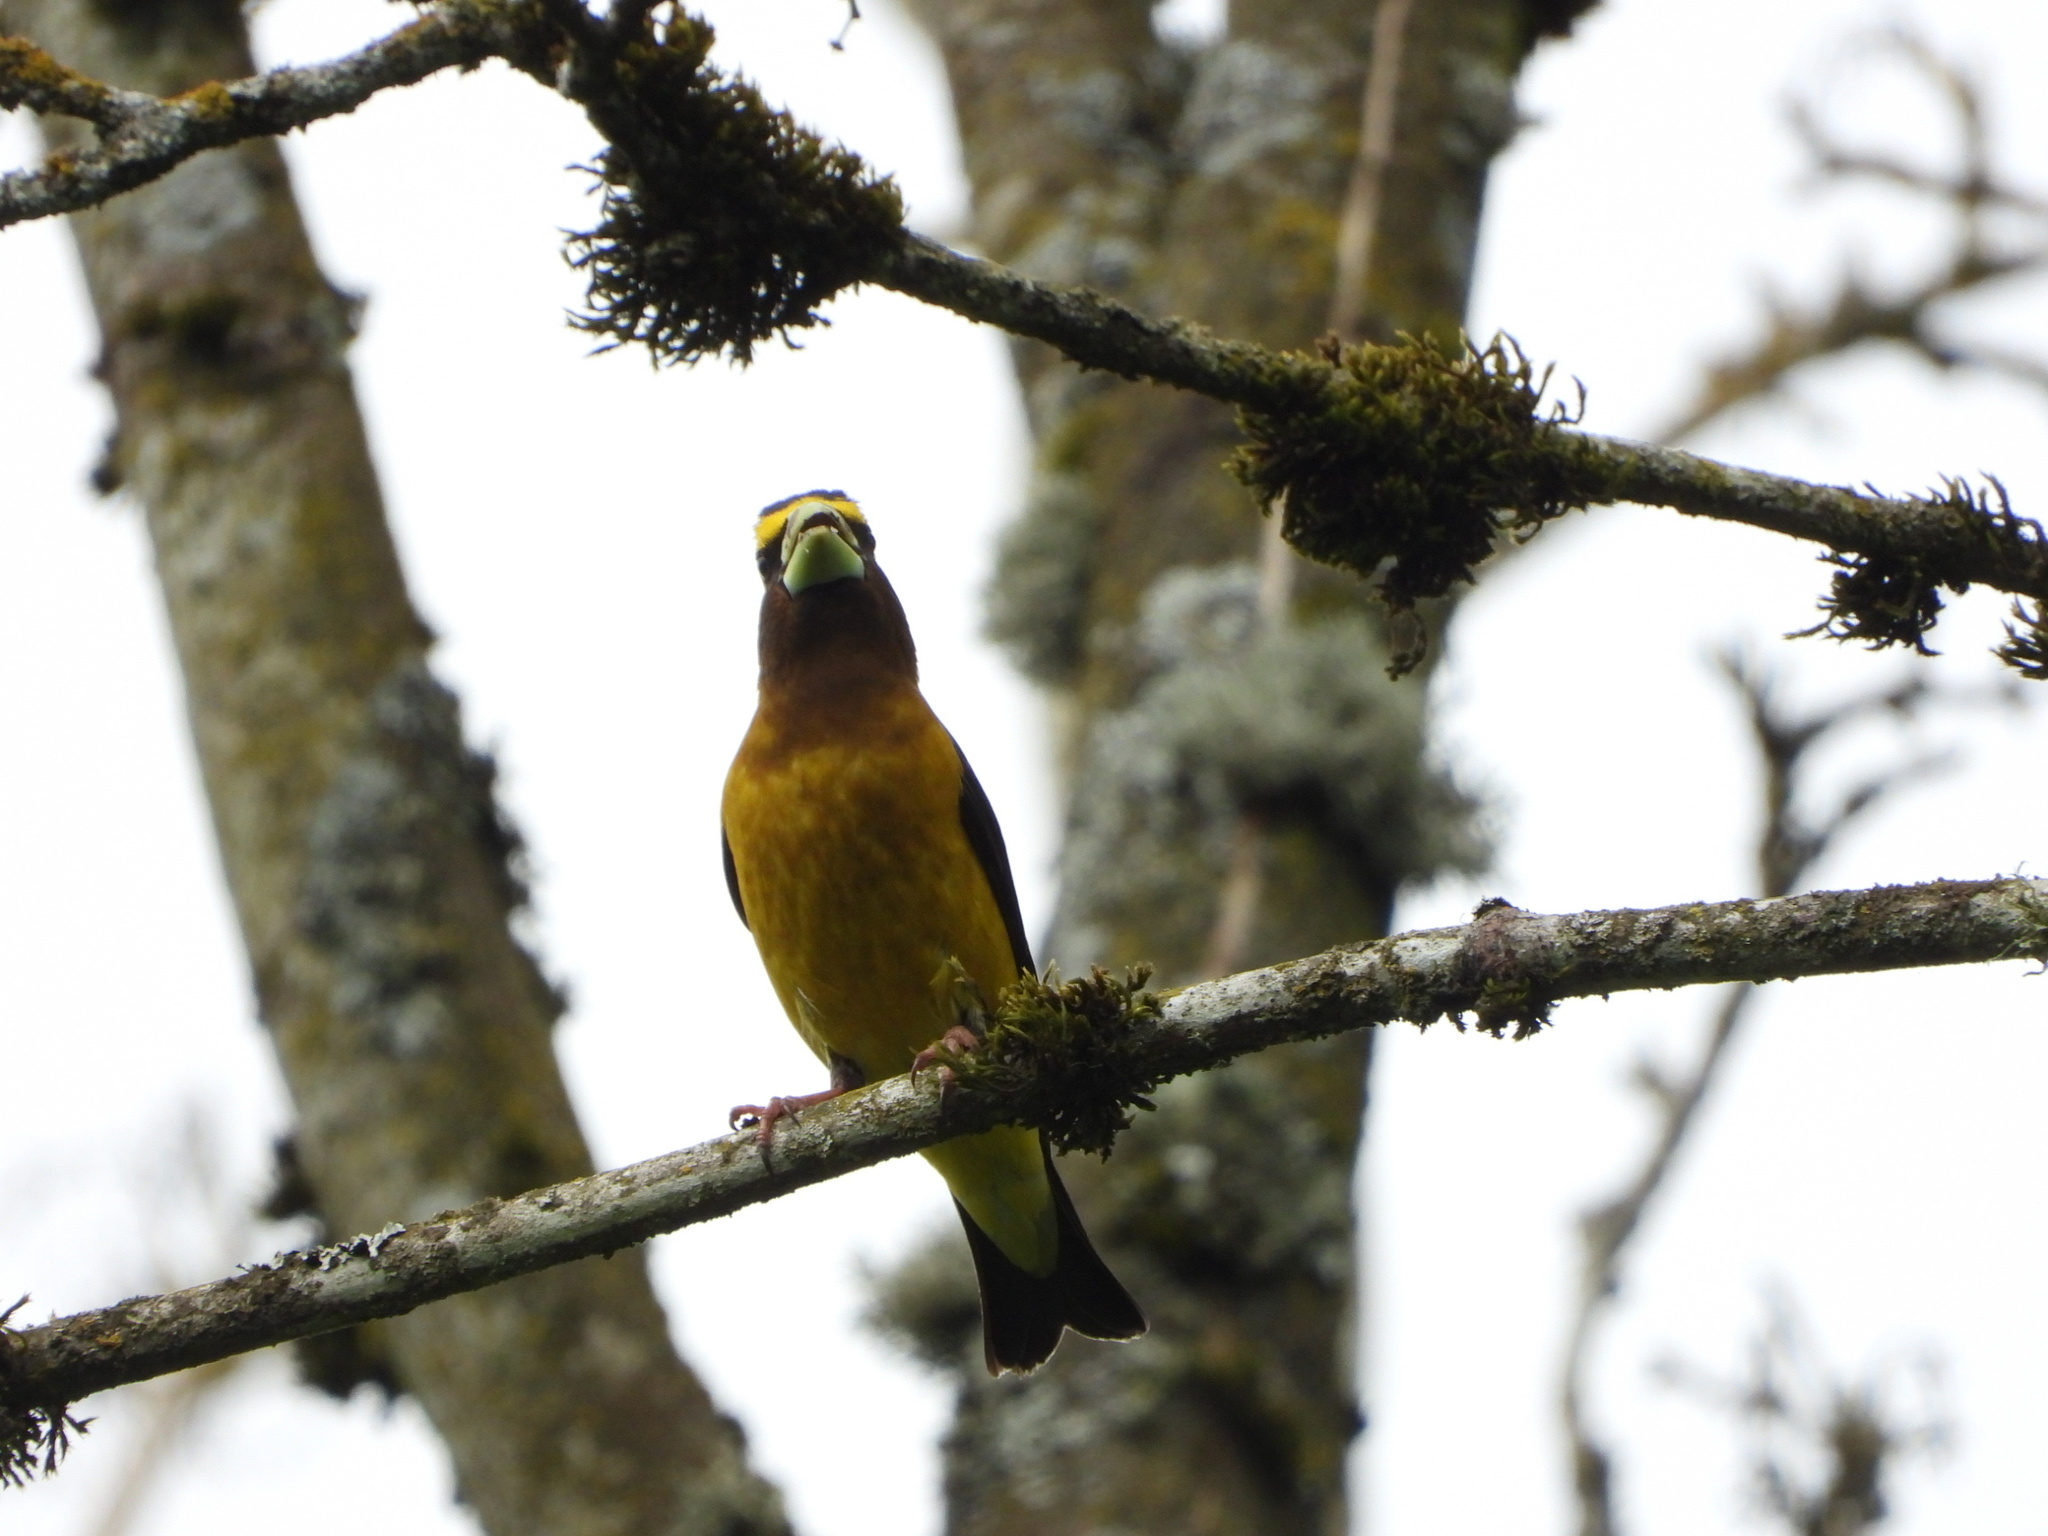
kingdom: Animalia
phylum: Chordata
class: Aves
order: Passeriformes
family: Fringillidae
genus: Hesperiphona
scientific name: Hesperiphona vespertina
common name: Evening grosbeak
